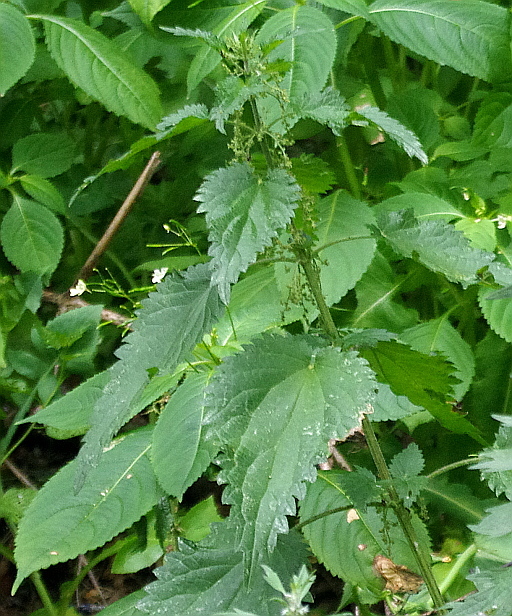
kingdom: Plantae
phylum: Tracheophyta
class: Magnoliopsida
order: Rosales
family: Urticaceae
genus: Urtica
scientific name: Urtica dioica
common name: Common nettle
